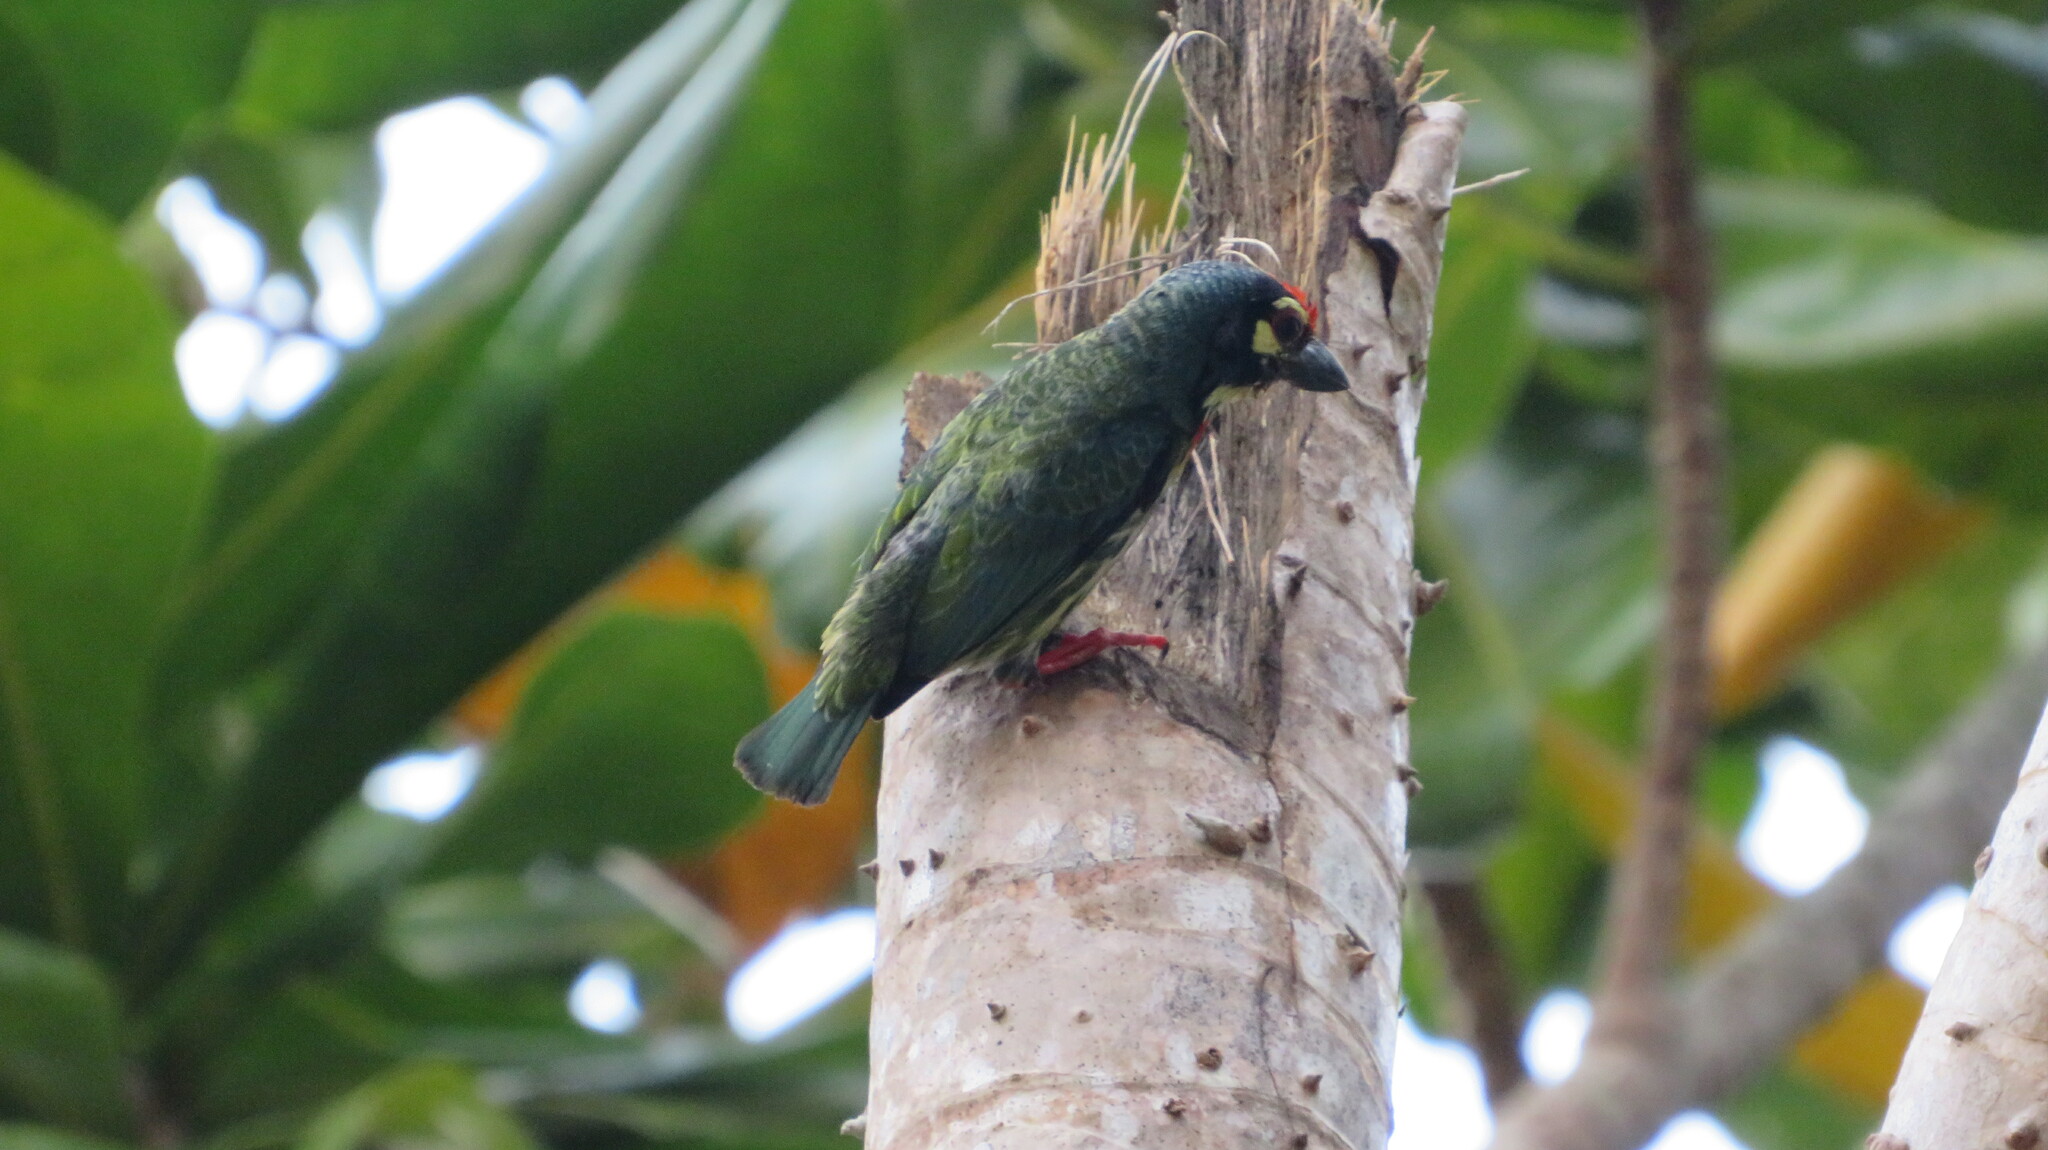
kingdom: Animalia
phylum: Chordata
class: Aves
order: Piciformes
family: Megalaimidae
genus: Psilopogon
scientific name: Psilopogon haemacephalus
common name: Coppersmith barbet
